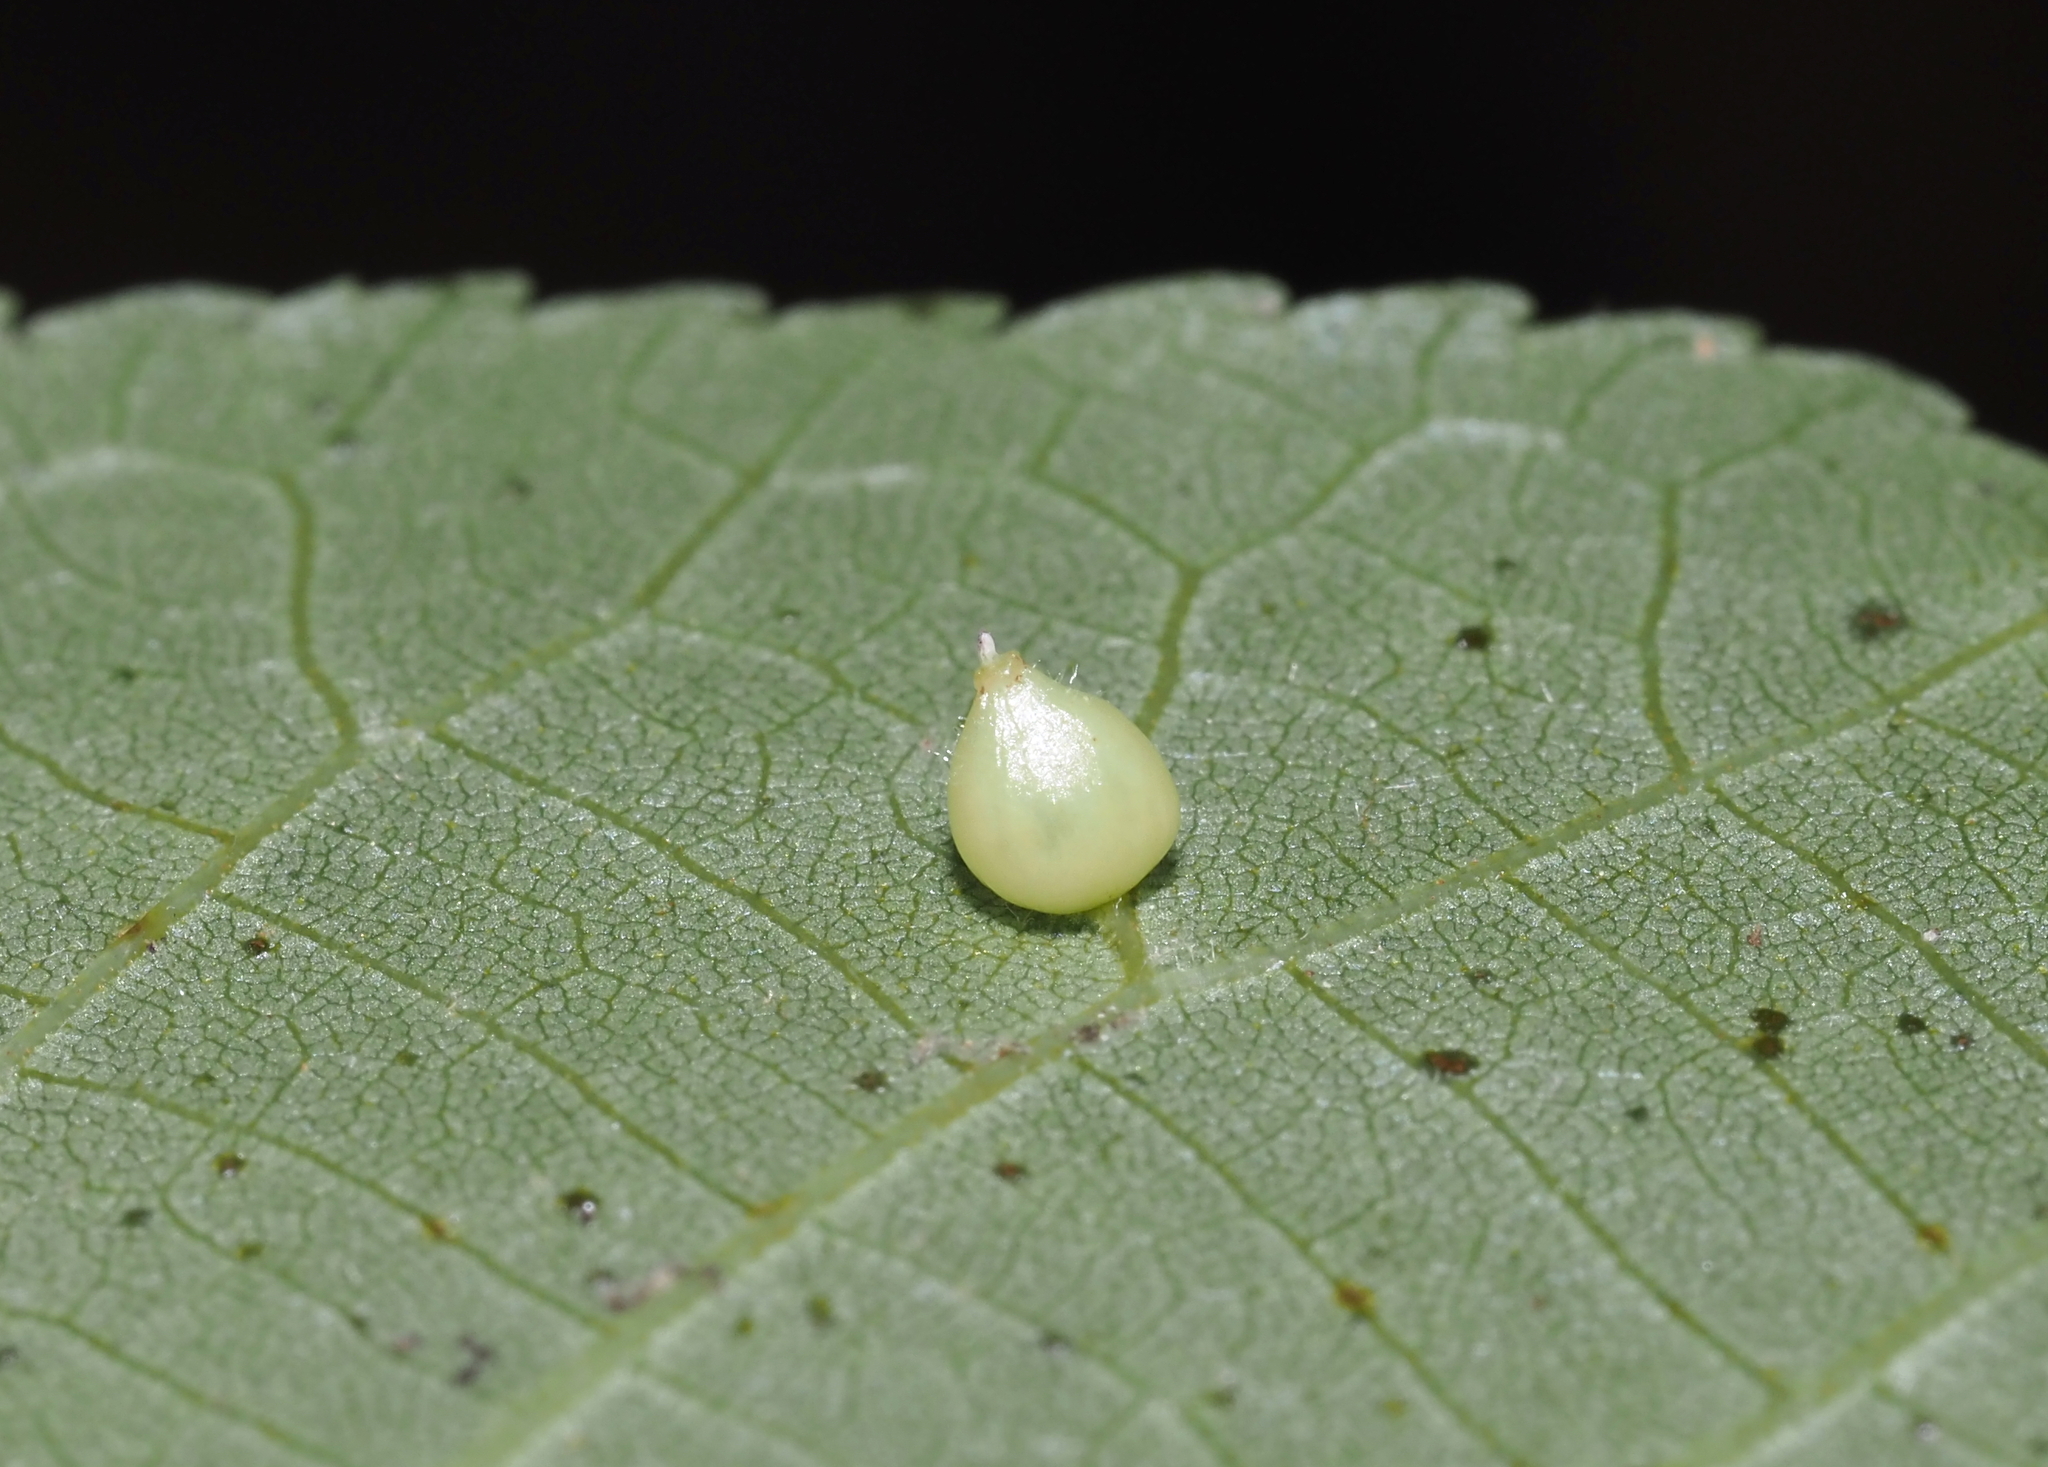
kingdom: Animalia
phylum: Arthropoda
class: Insecta
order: Diptera
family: Cecidomyiidae
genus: Caryomyia
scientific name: Caryomyia caryaecola
